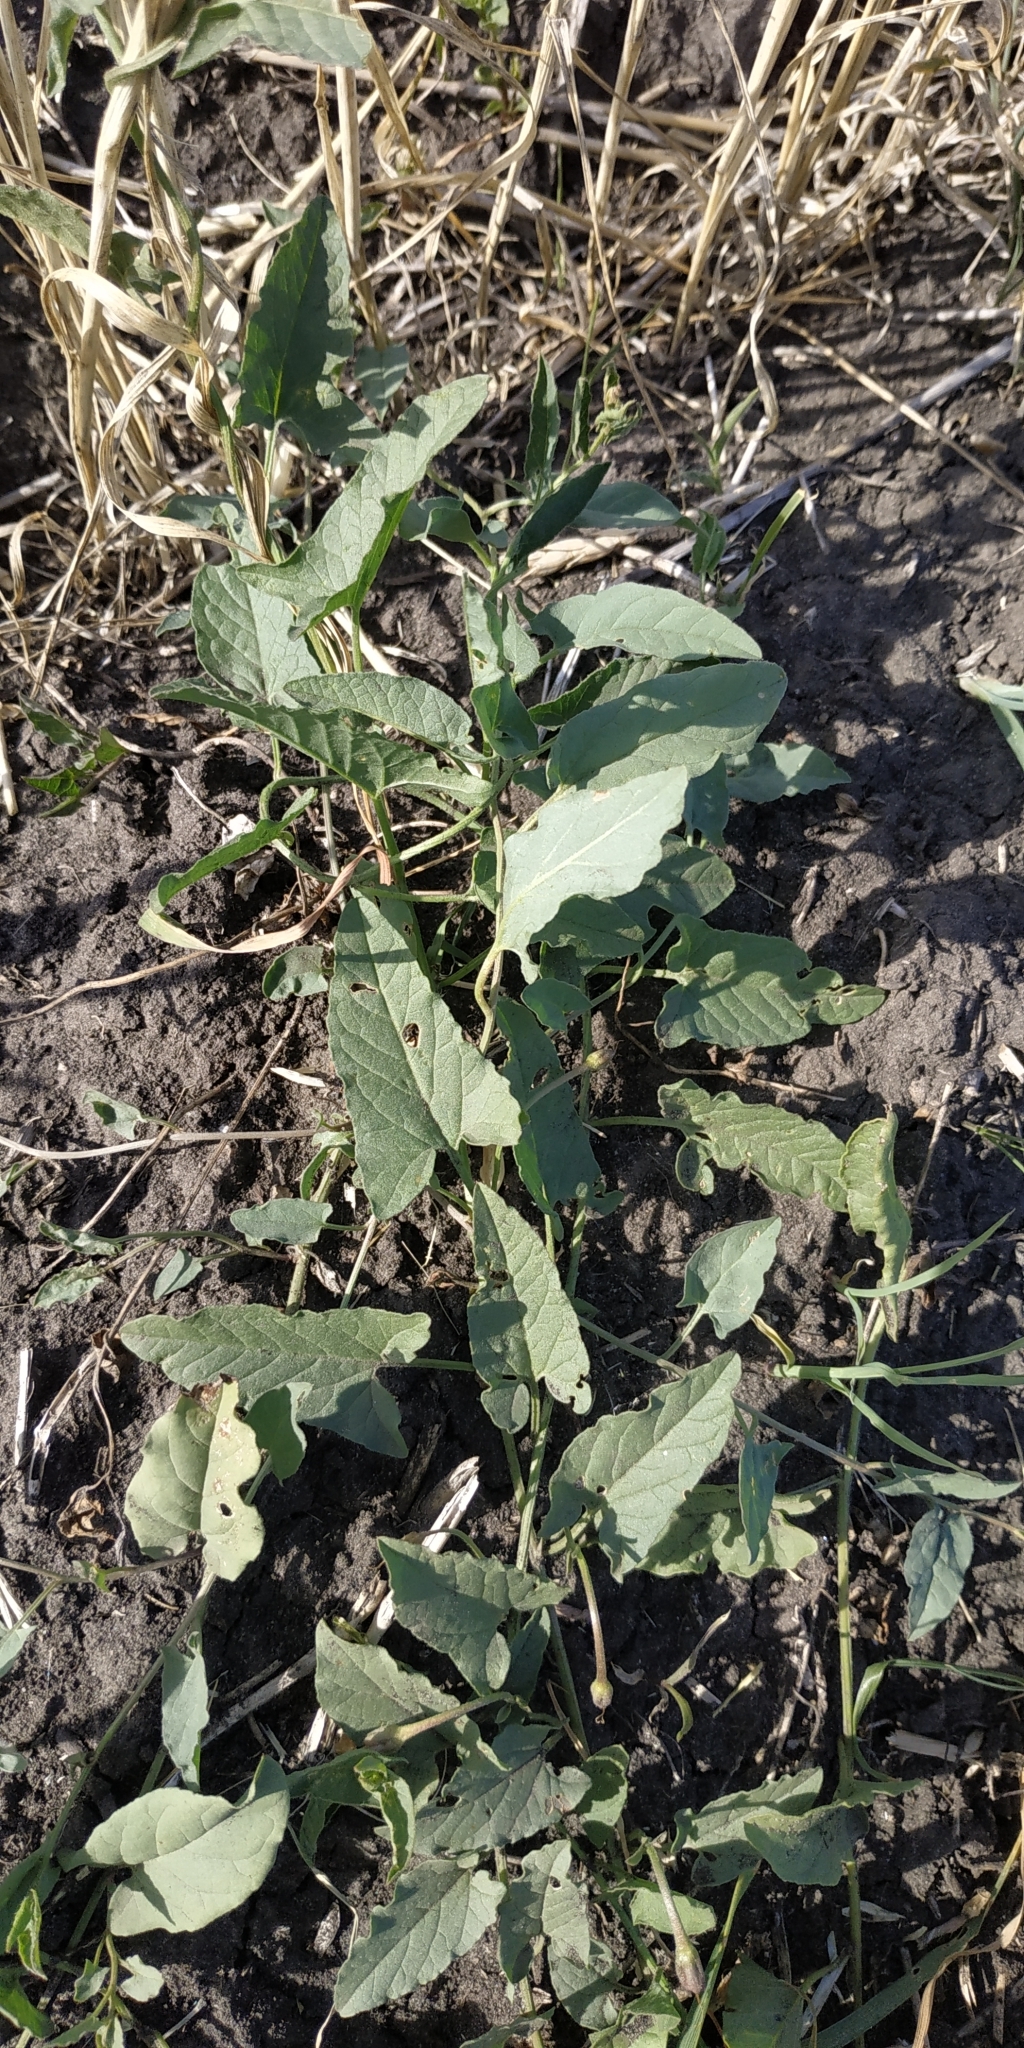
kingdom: Plantae
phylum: Tracheophyta
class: Magnoliopsida
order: Solanales
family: Convolvulaceae
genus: Convolvulus
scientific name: Convolvulus arvensis
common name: Field bindweed
